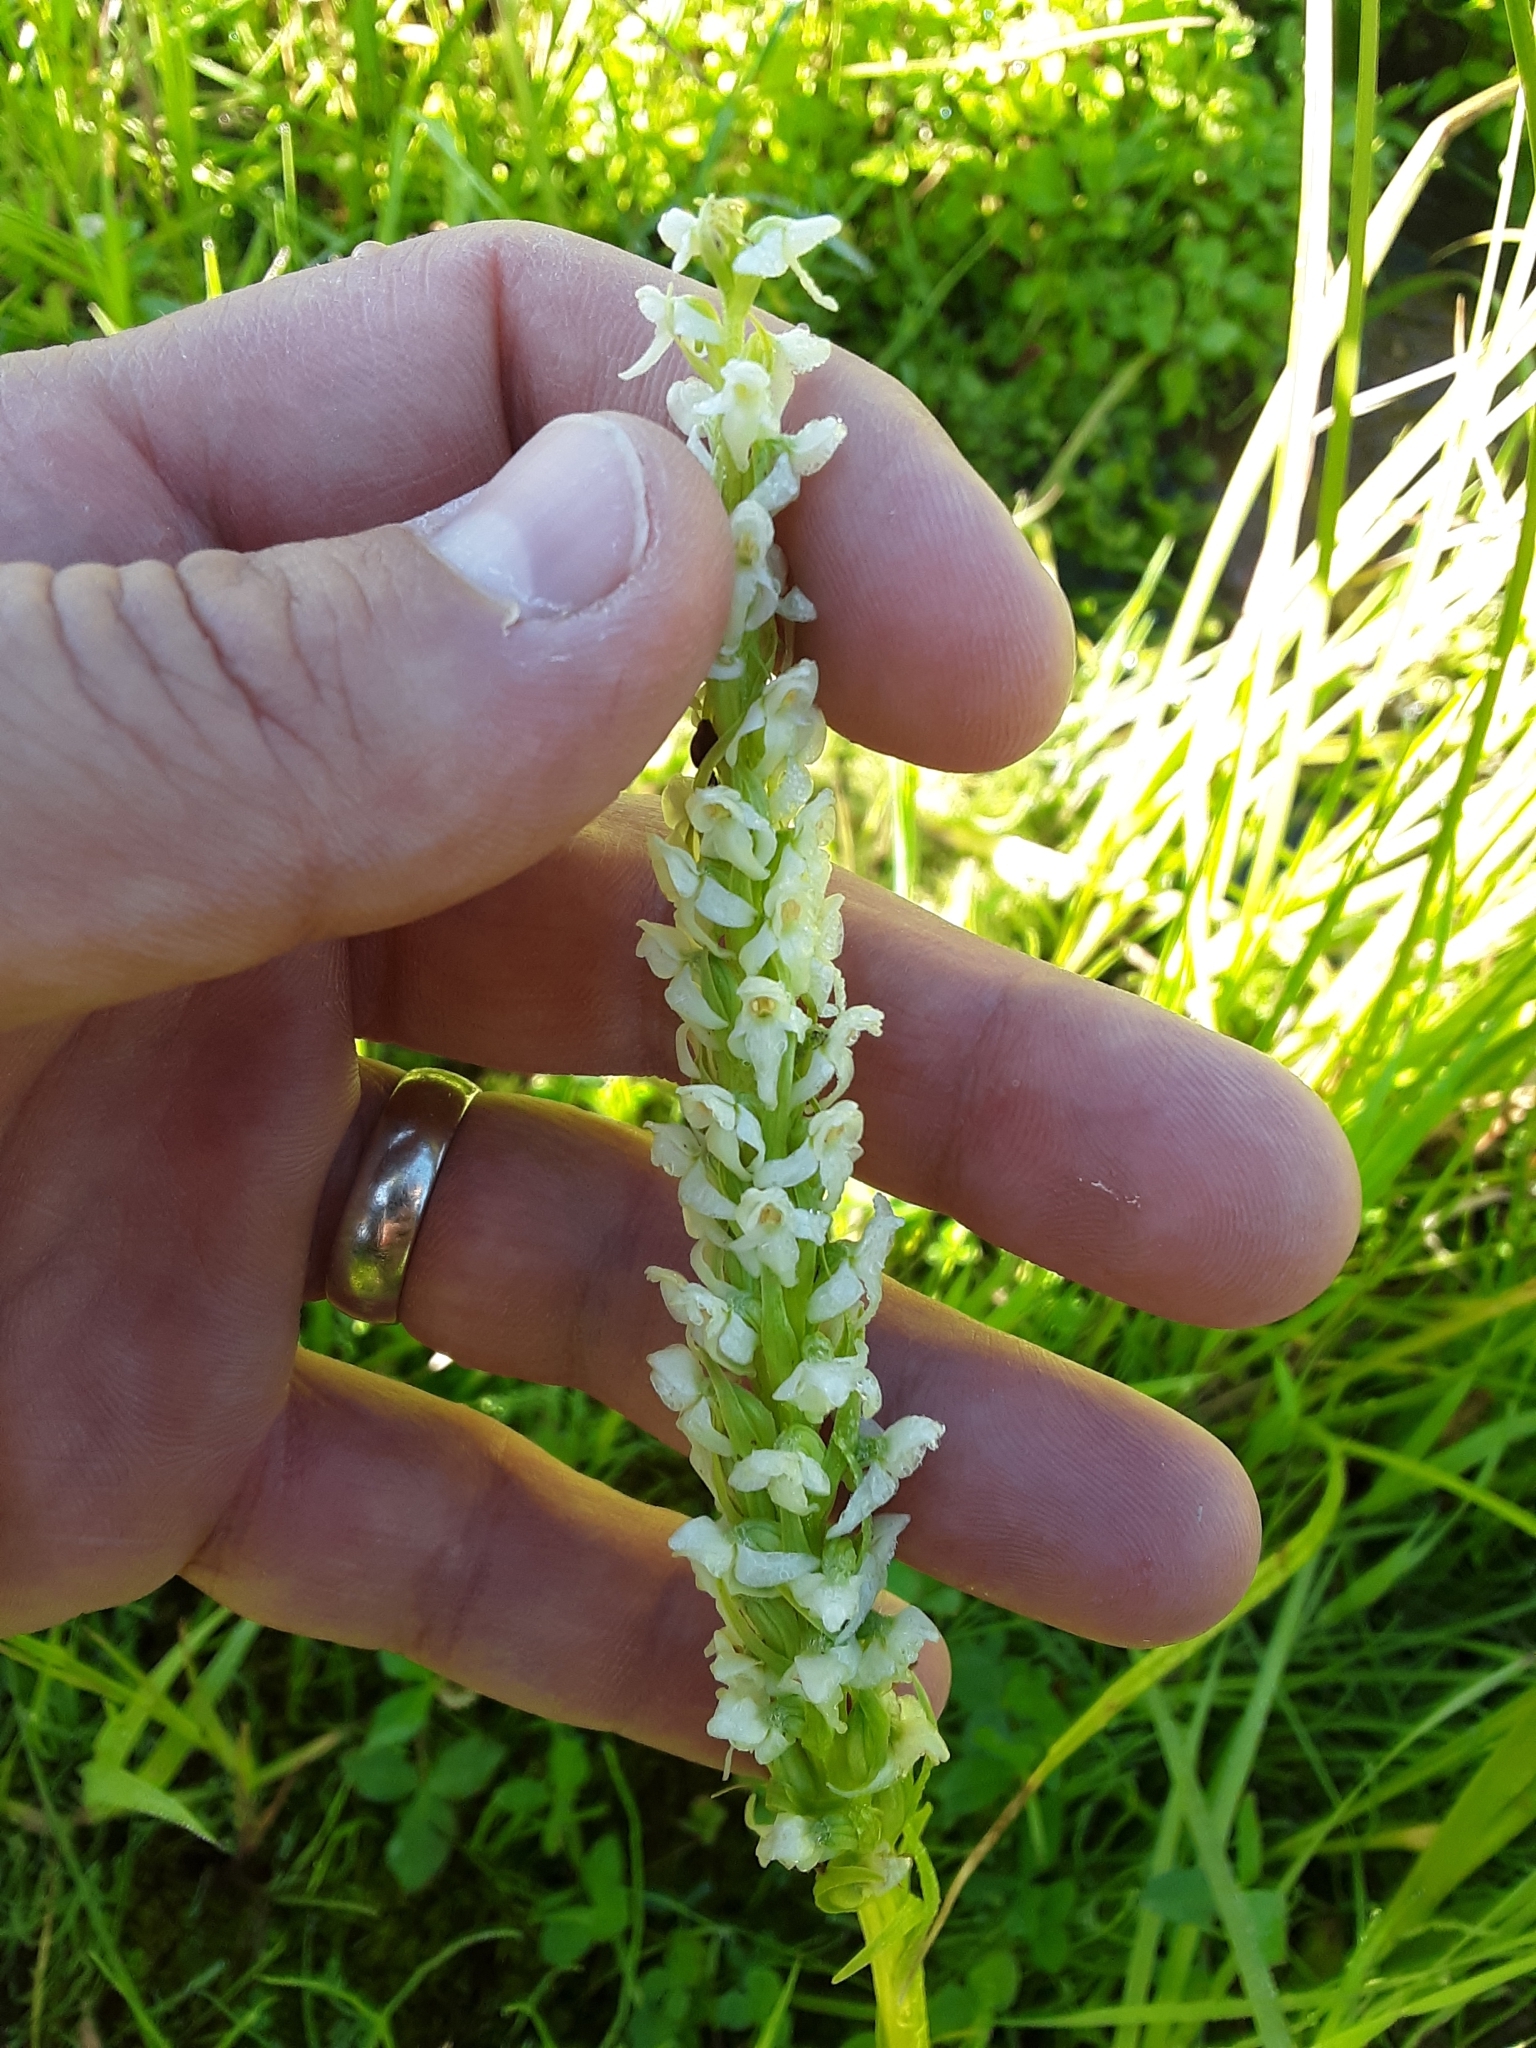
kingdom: Plantae
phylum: Tracheophyta
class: Liliopsida
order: Asparagales
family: Orchidaceae
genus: Platanthera
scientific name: Platanthera dilatata
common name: Bog candles
